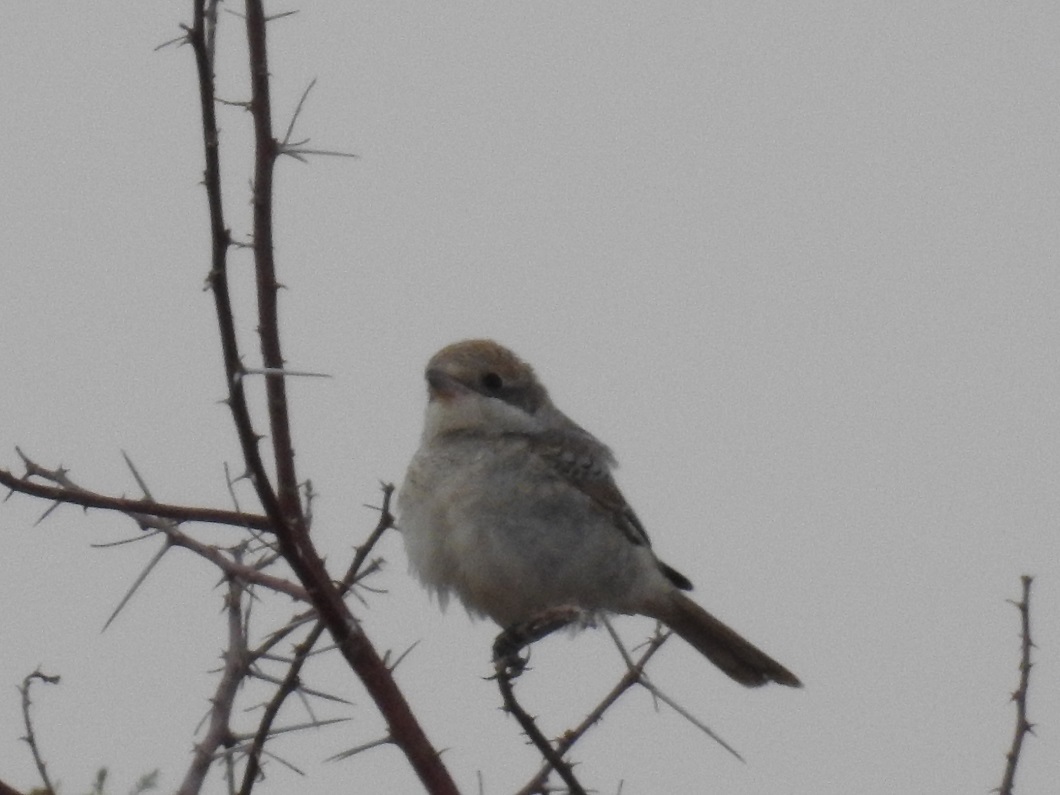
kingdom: Animalia
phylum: Chordata
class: Aves
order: Passeriformes
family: Laniidae
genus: Lanius
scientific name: Lanius senator
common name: Woodchat shrike
